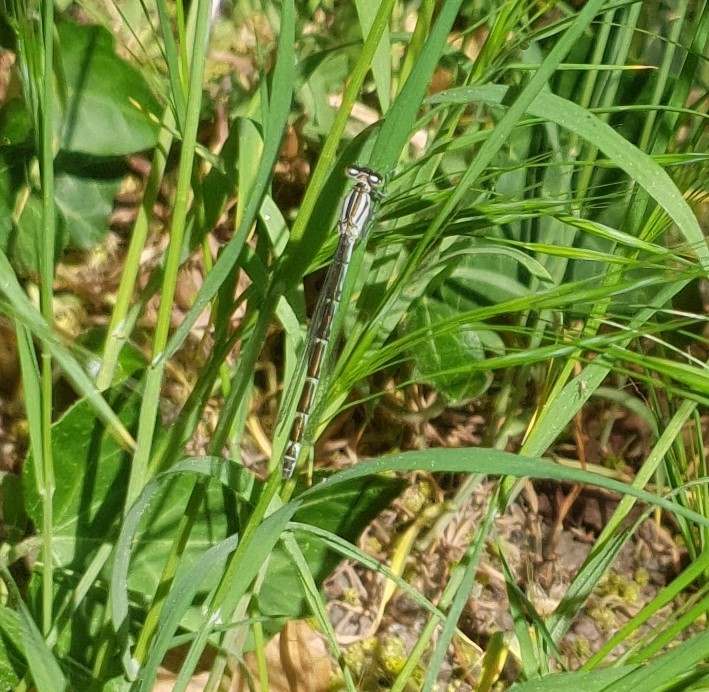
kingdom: Animalia
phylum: Arthropoda
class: Insecta
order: Odonata
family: Coenagrionidae
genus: Enallagma
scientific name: Enallagma cyathigerum
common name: Common blue damselfly
